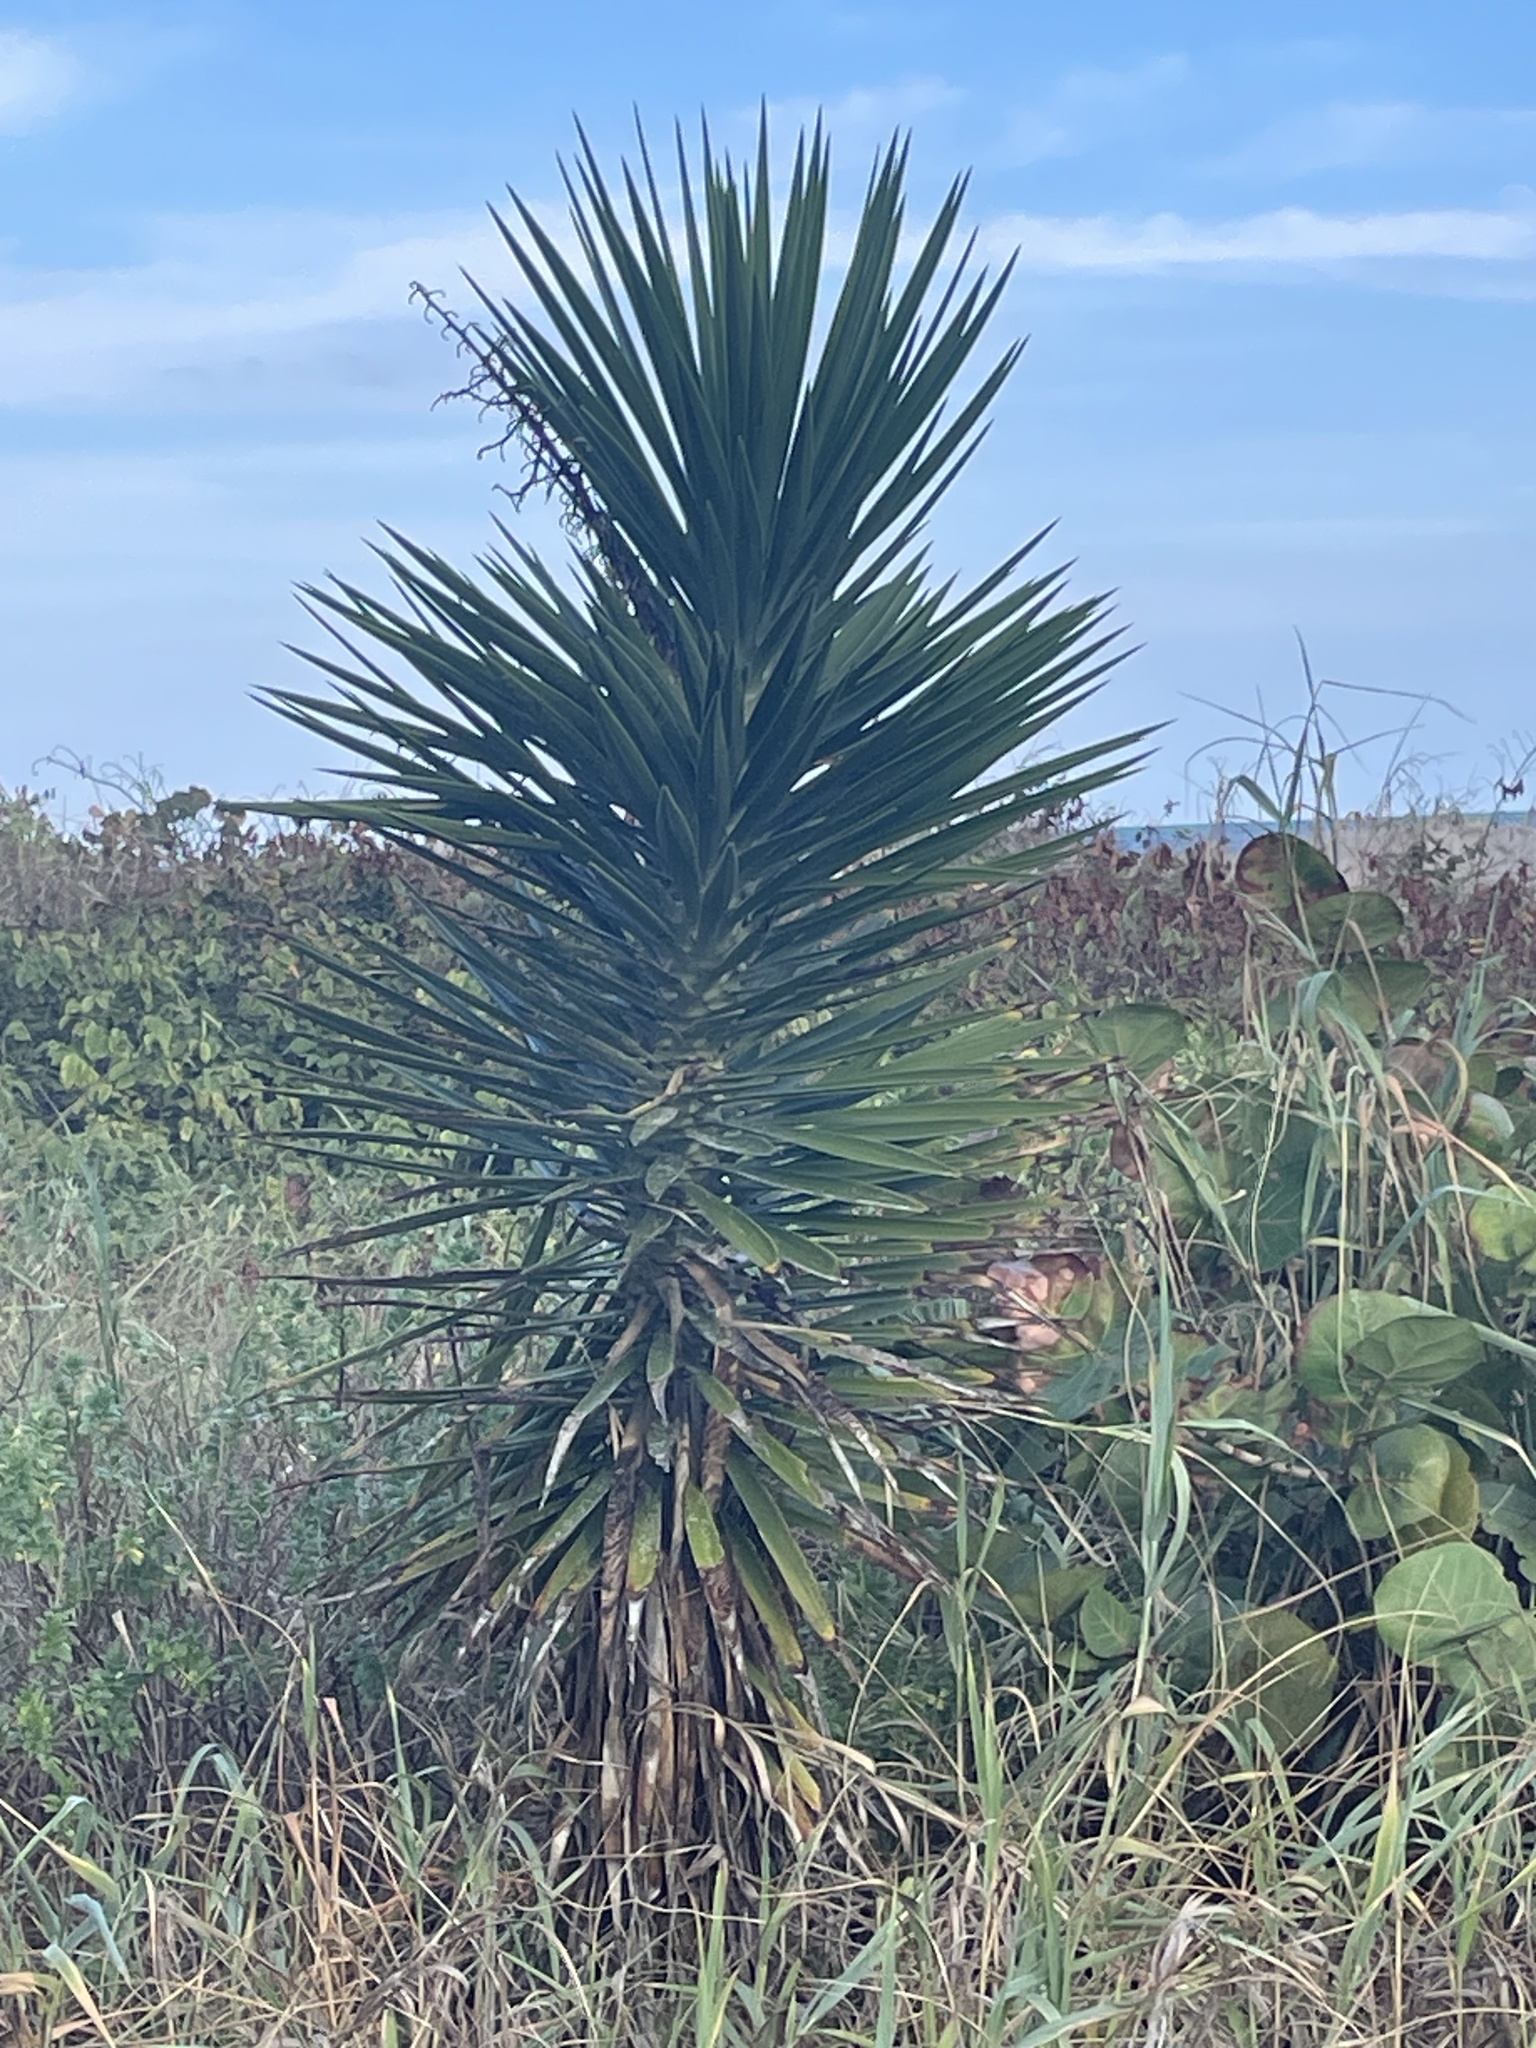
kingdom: Plantae
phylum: Tracheophyta
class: Liliopsida
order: Asparagales
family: Asparagaceae
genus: Yucca
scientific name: Yucca aloifolia
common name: Aloe yucca
